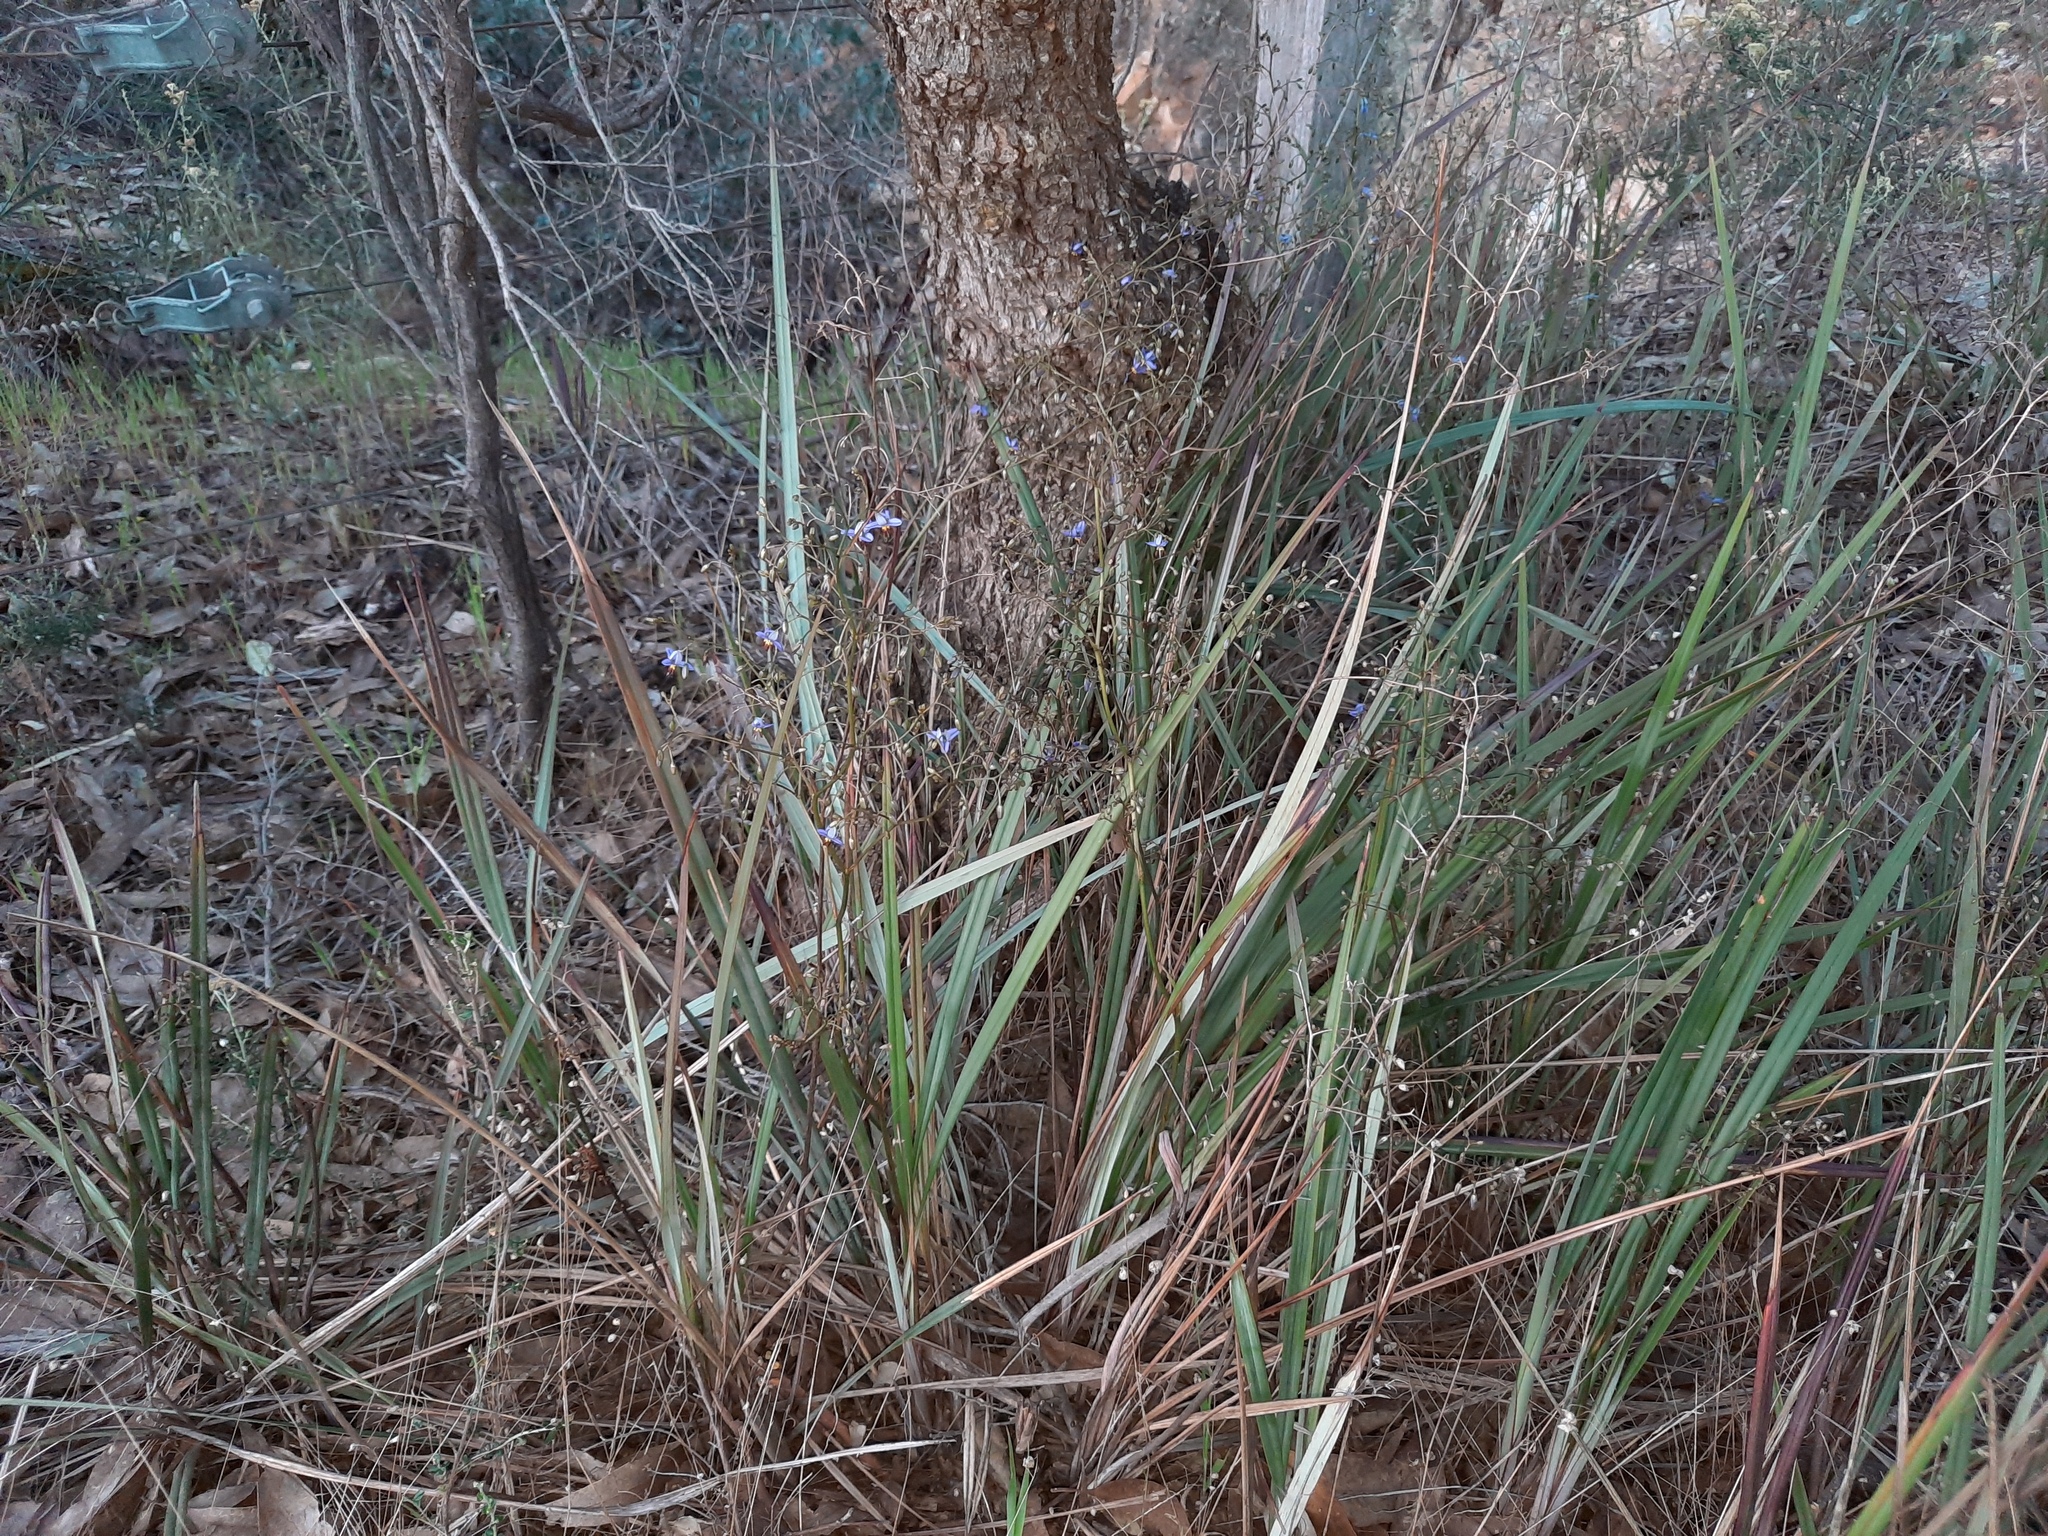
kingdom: Plantae
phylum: Tracheophyta
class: Liliopsida
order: Asparagales
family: Asphodelaceae
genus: Dianella
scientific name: Dianella revoluta
